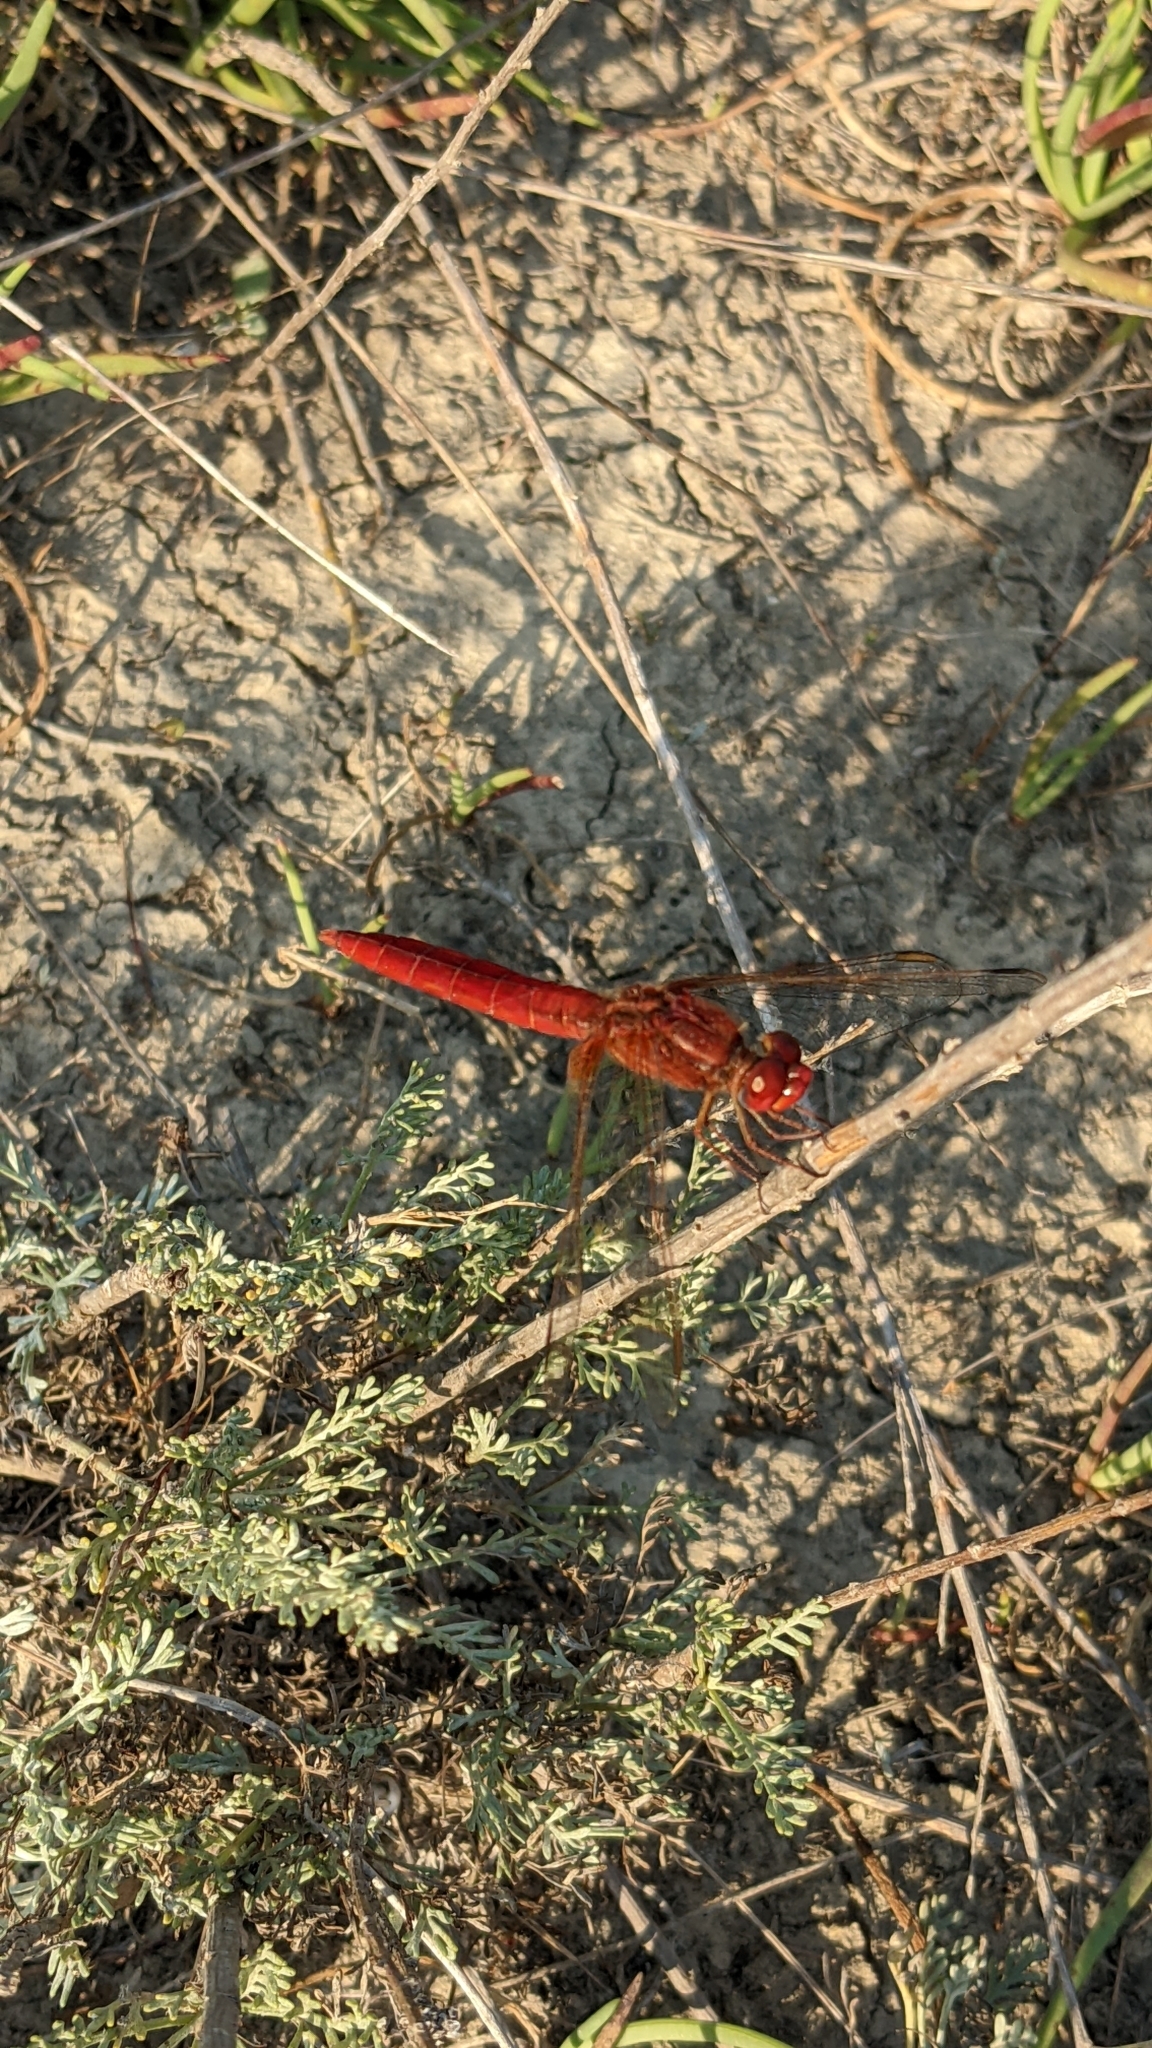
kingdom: Animalia
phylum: Arthropoda
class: Insecta
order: Odonata
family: Libellulidae
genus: Crocothemis
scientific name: Crocothemis erythraea
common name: Scarlet dragonfly
